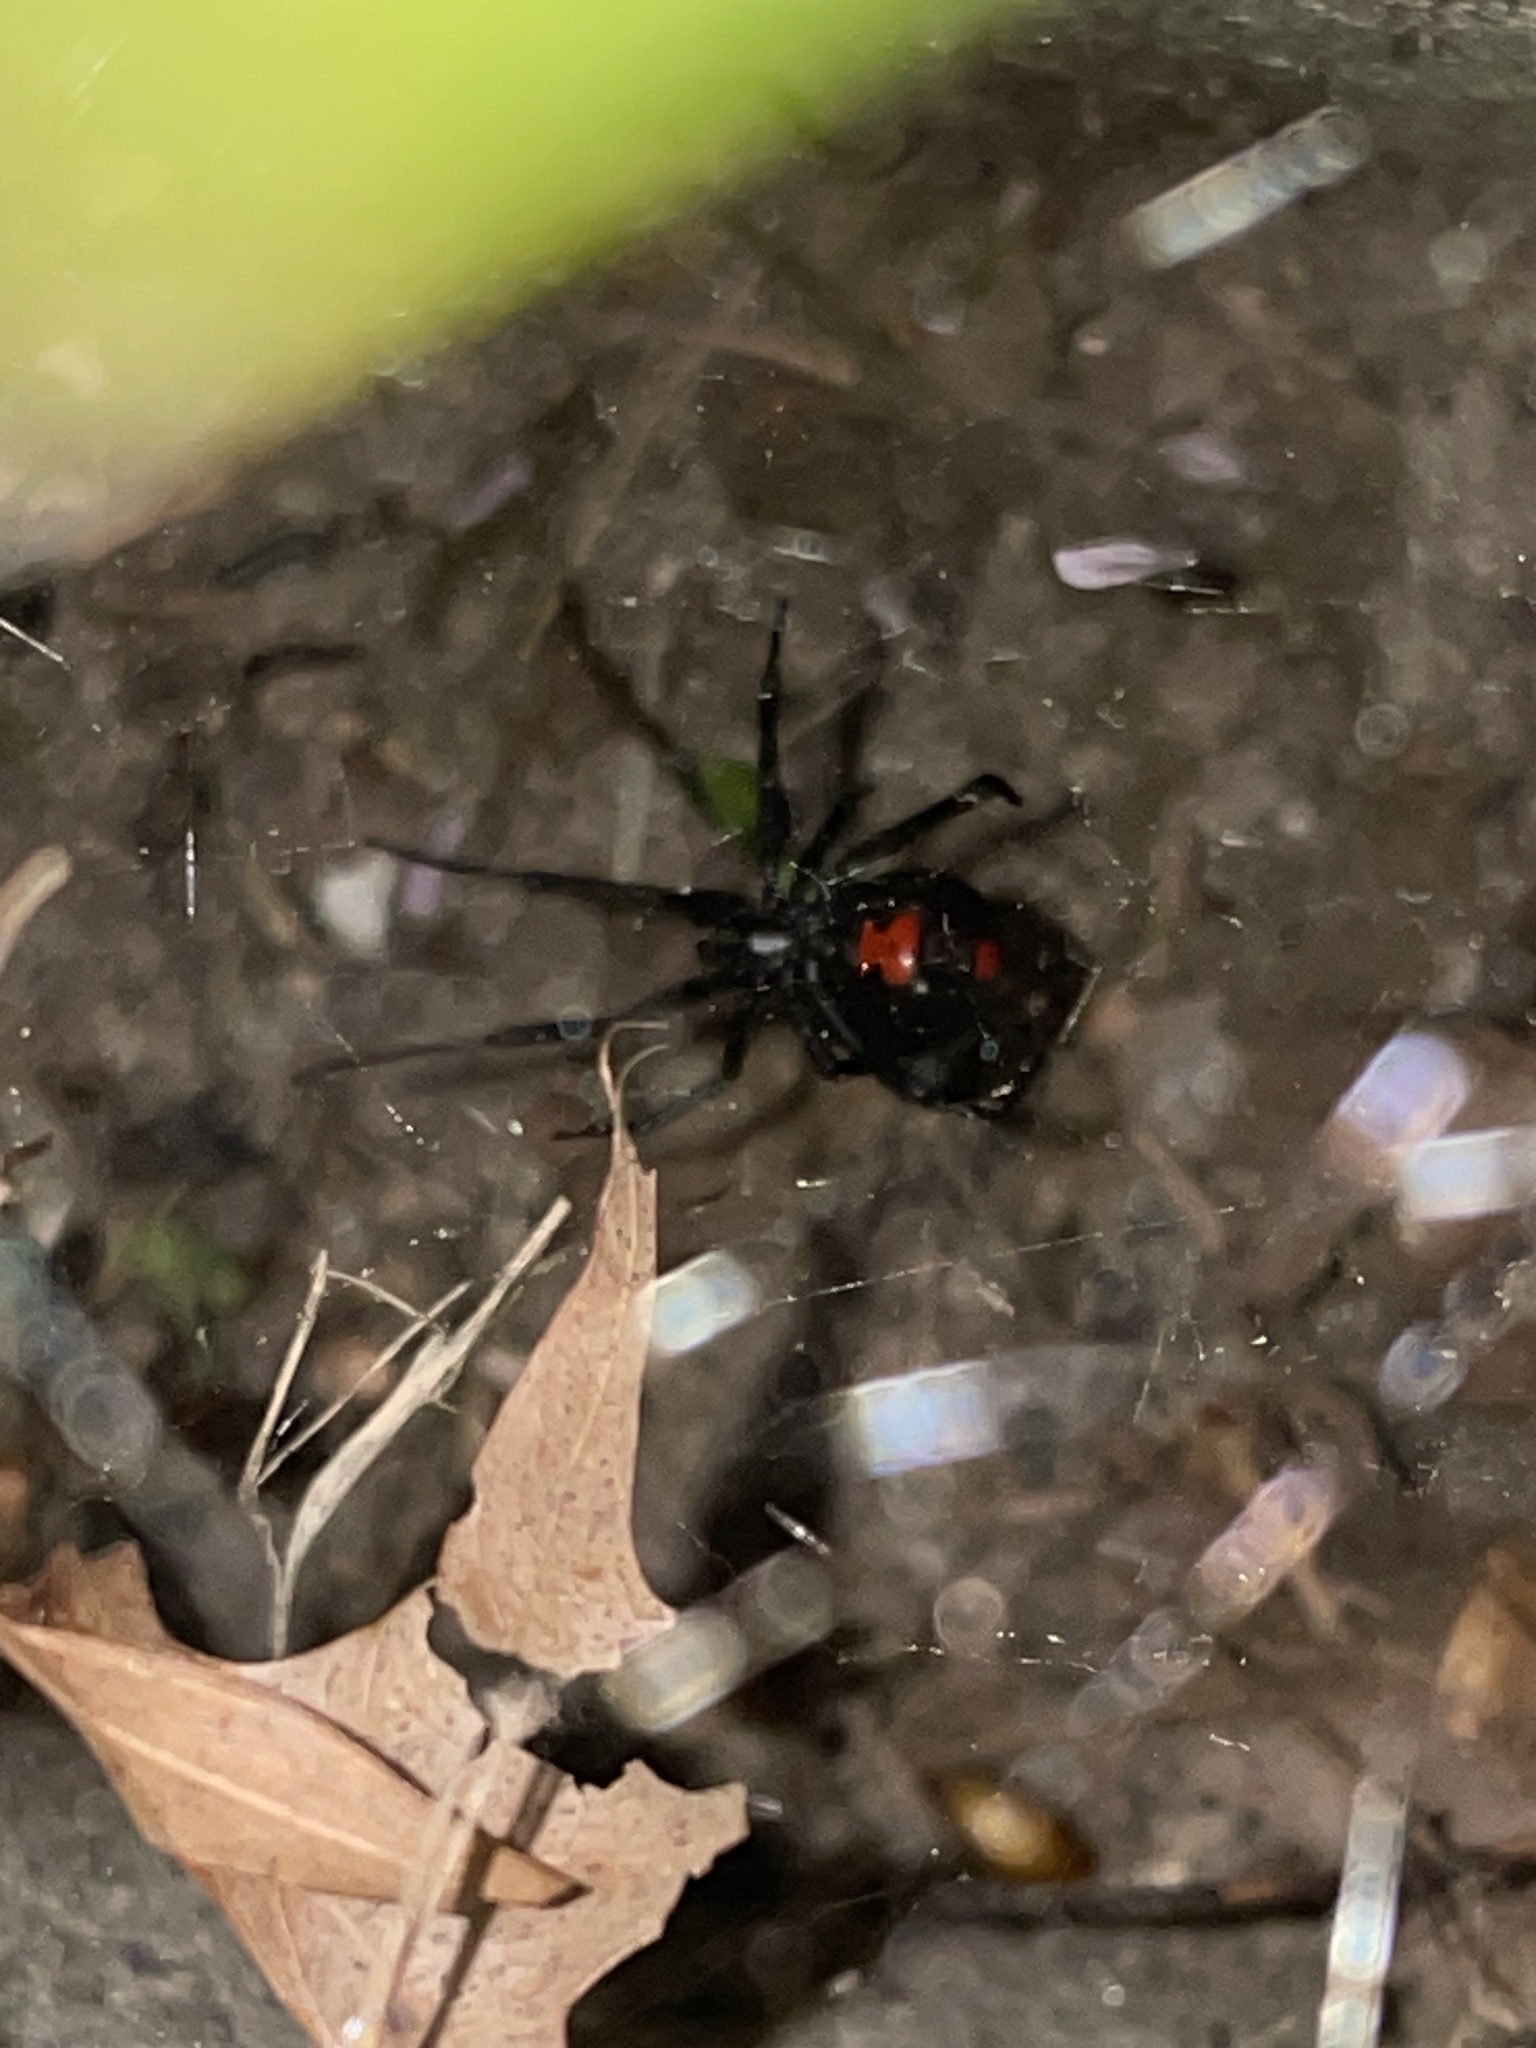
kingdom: Animalia
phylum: Arthropoda
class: Arachnida
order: Araneae
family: Theridiidae
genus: Latrodectus
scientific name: Latrodectus mactans
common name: Cobweb spiders
